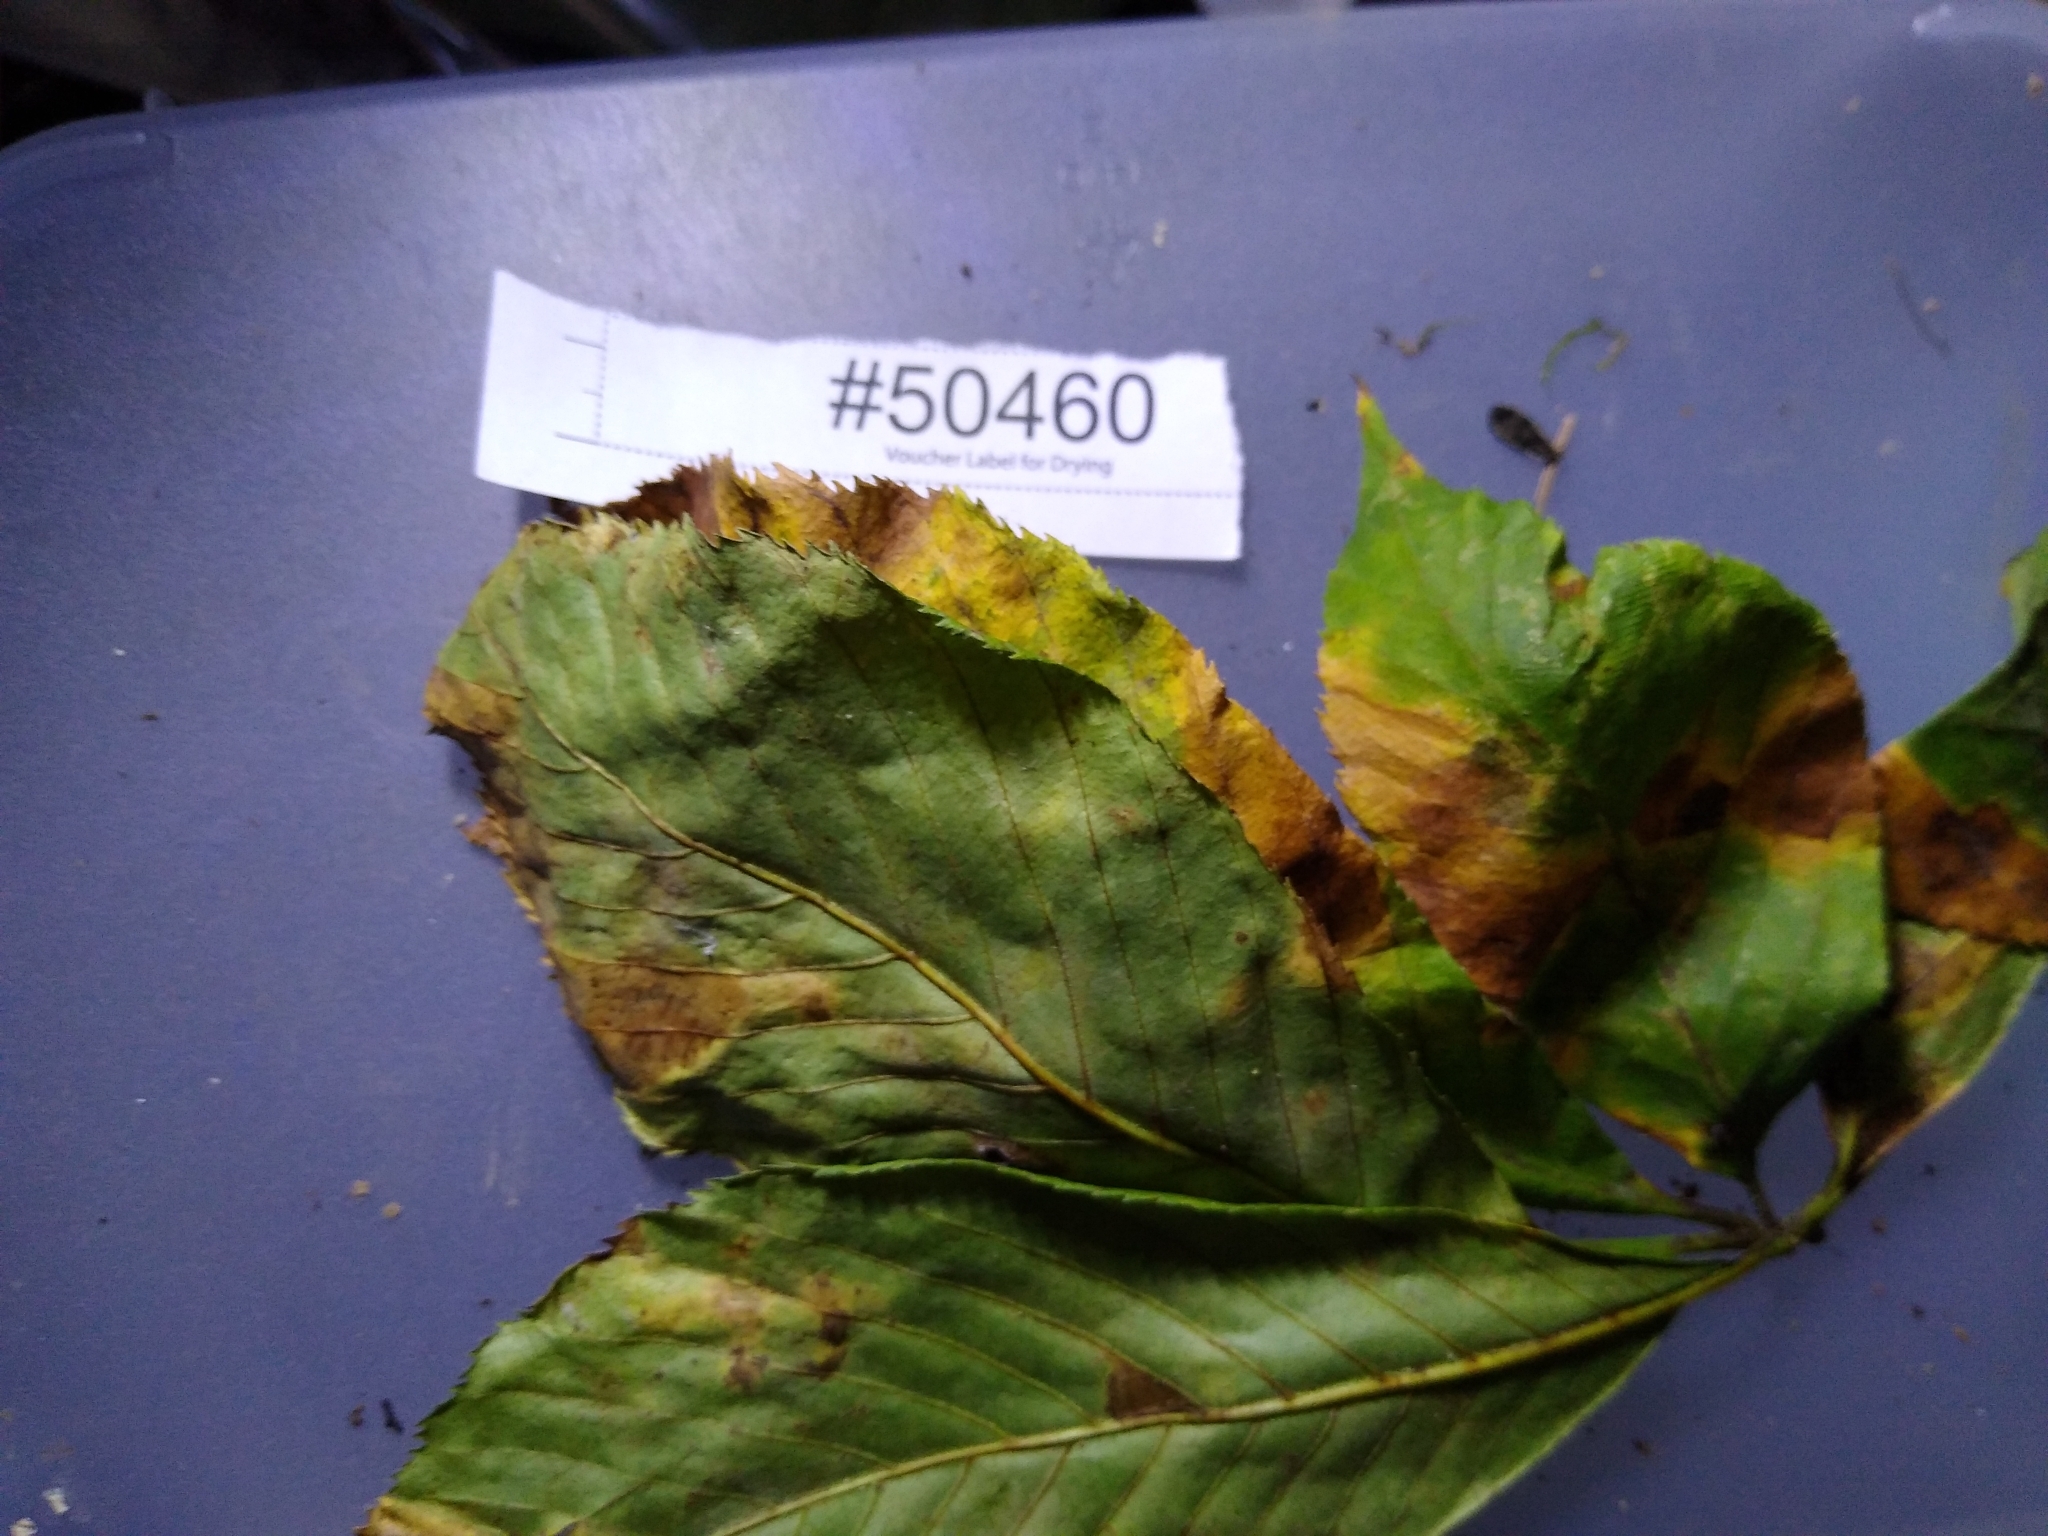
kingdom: Fungi
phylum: Ascomycota
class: Dothideomycetes
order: Botryosphaeriales
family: Phyllostictaceae
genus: Phyllosticta
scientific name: Phyllosticta paviae
